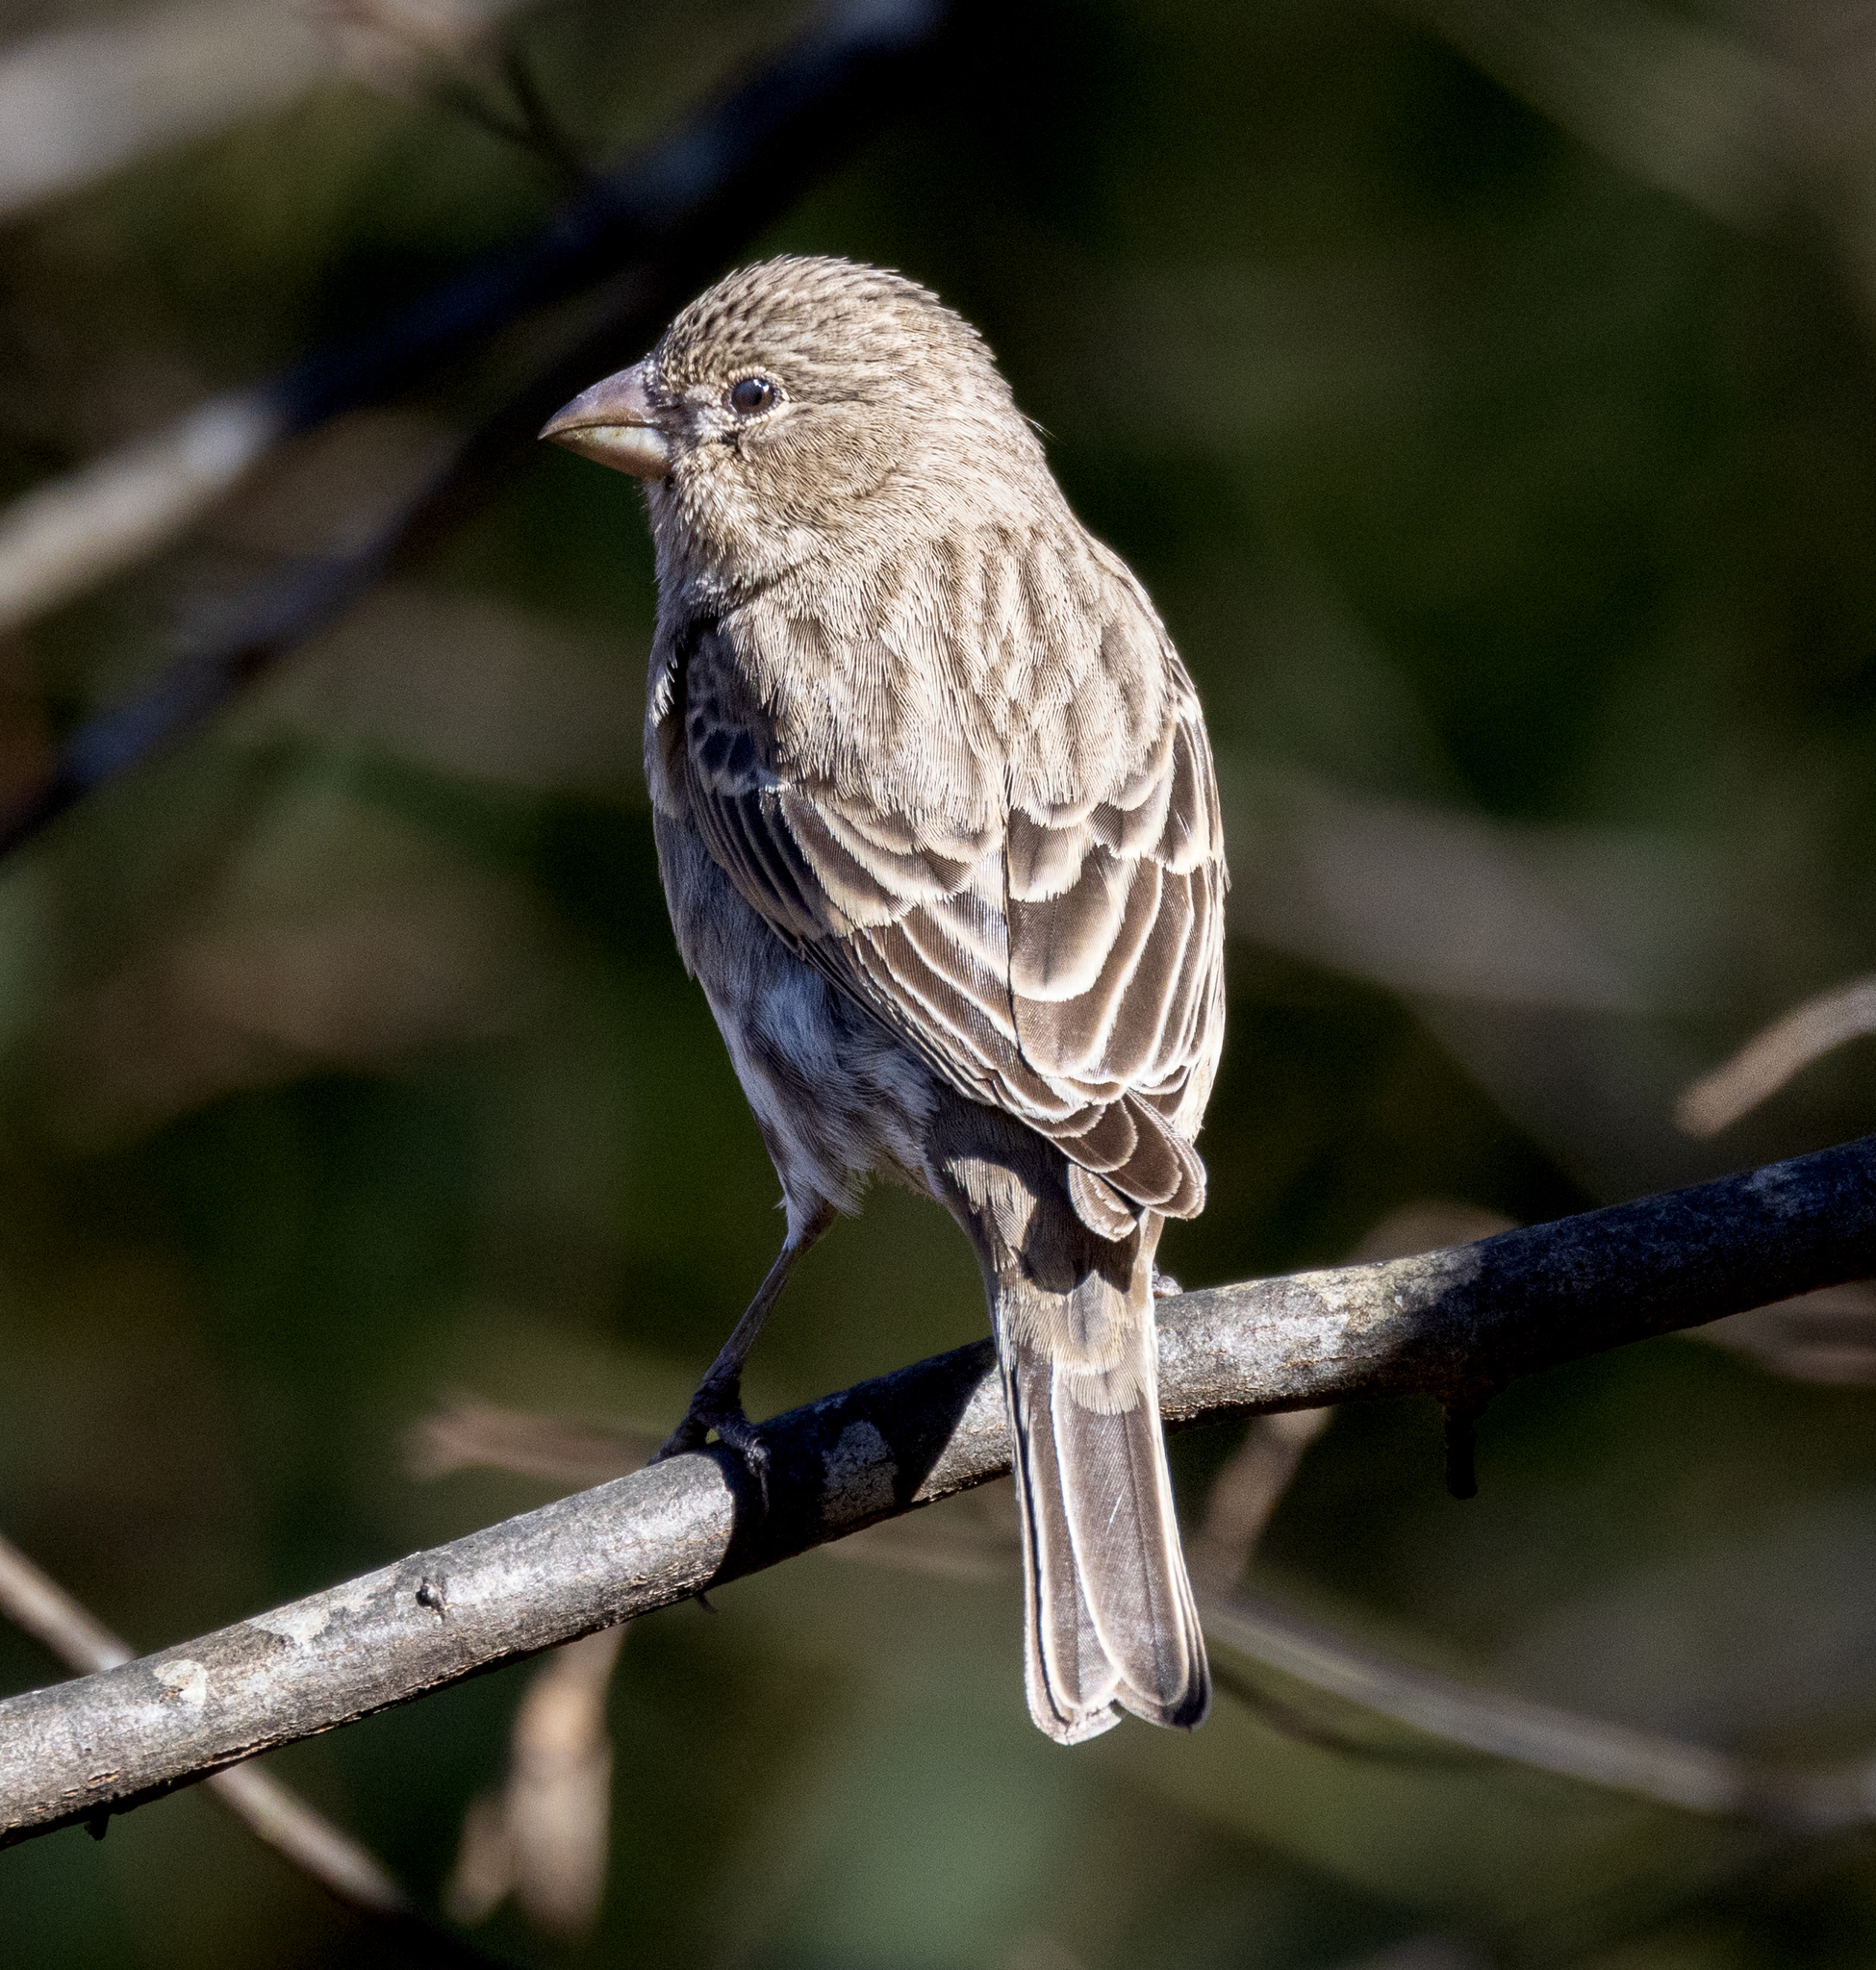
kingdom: Animalia
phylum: Chordata
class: Aves
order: Passeriformes
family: Fringillidae
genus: Haemorhous
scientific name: Haemorhous mexicanus
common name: House finch
